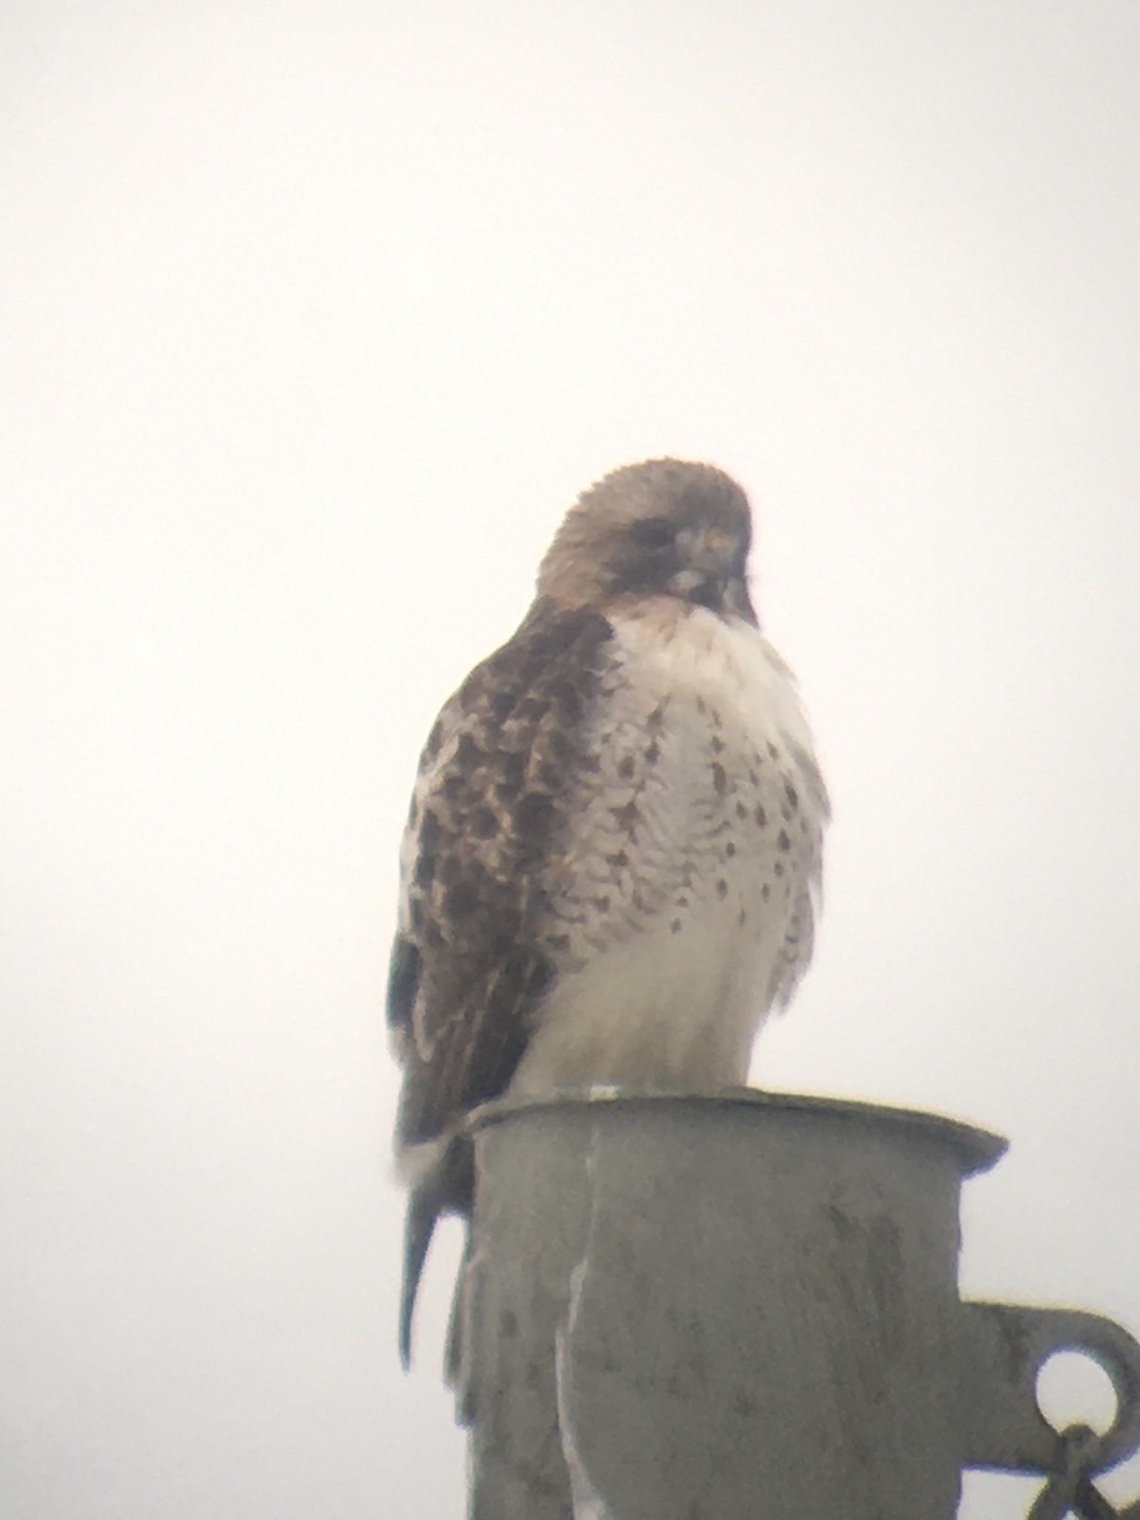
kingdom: Animalia
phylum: Chordata
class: Aves
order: Accipitriformes
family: Accipitridae
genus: Buteo
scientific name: Buteo jamaicensis
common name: Red-tailed hawk
